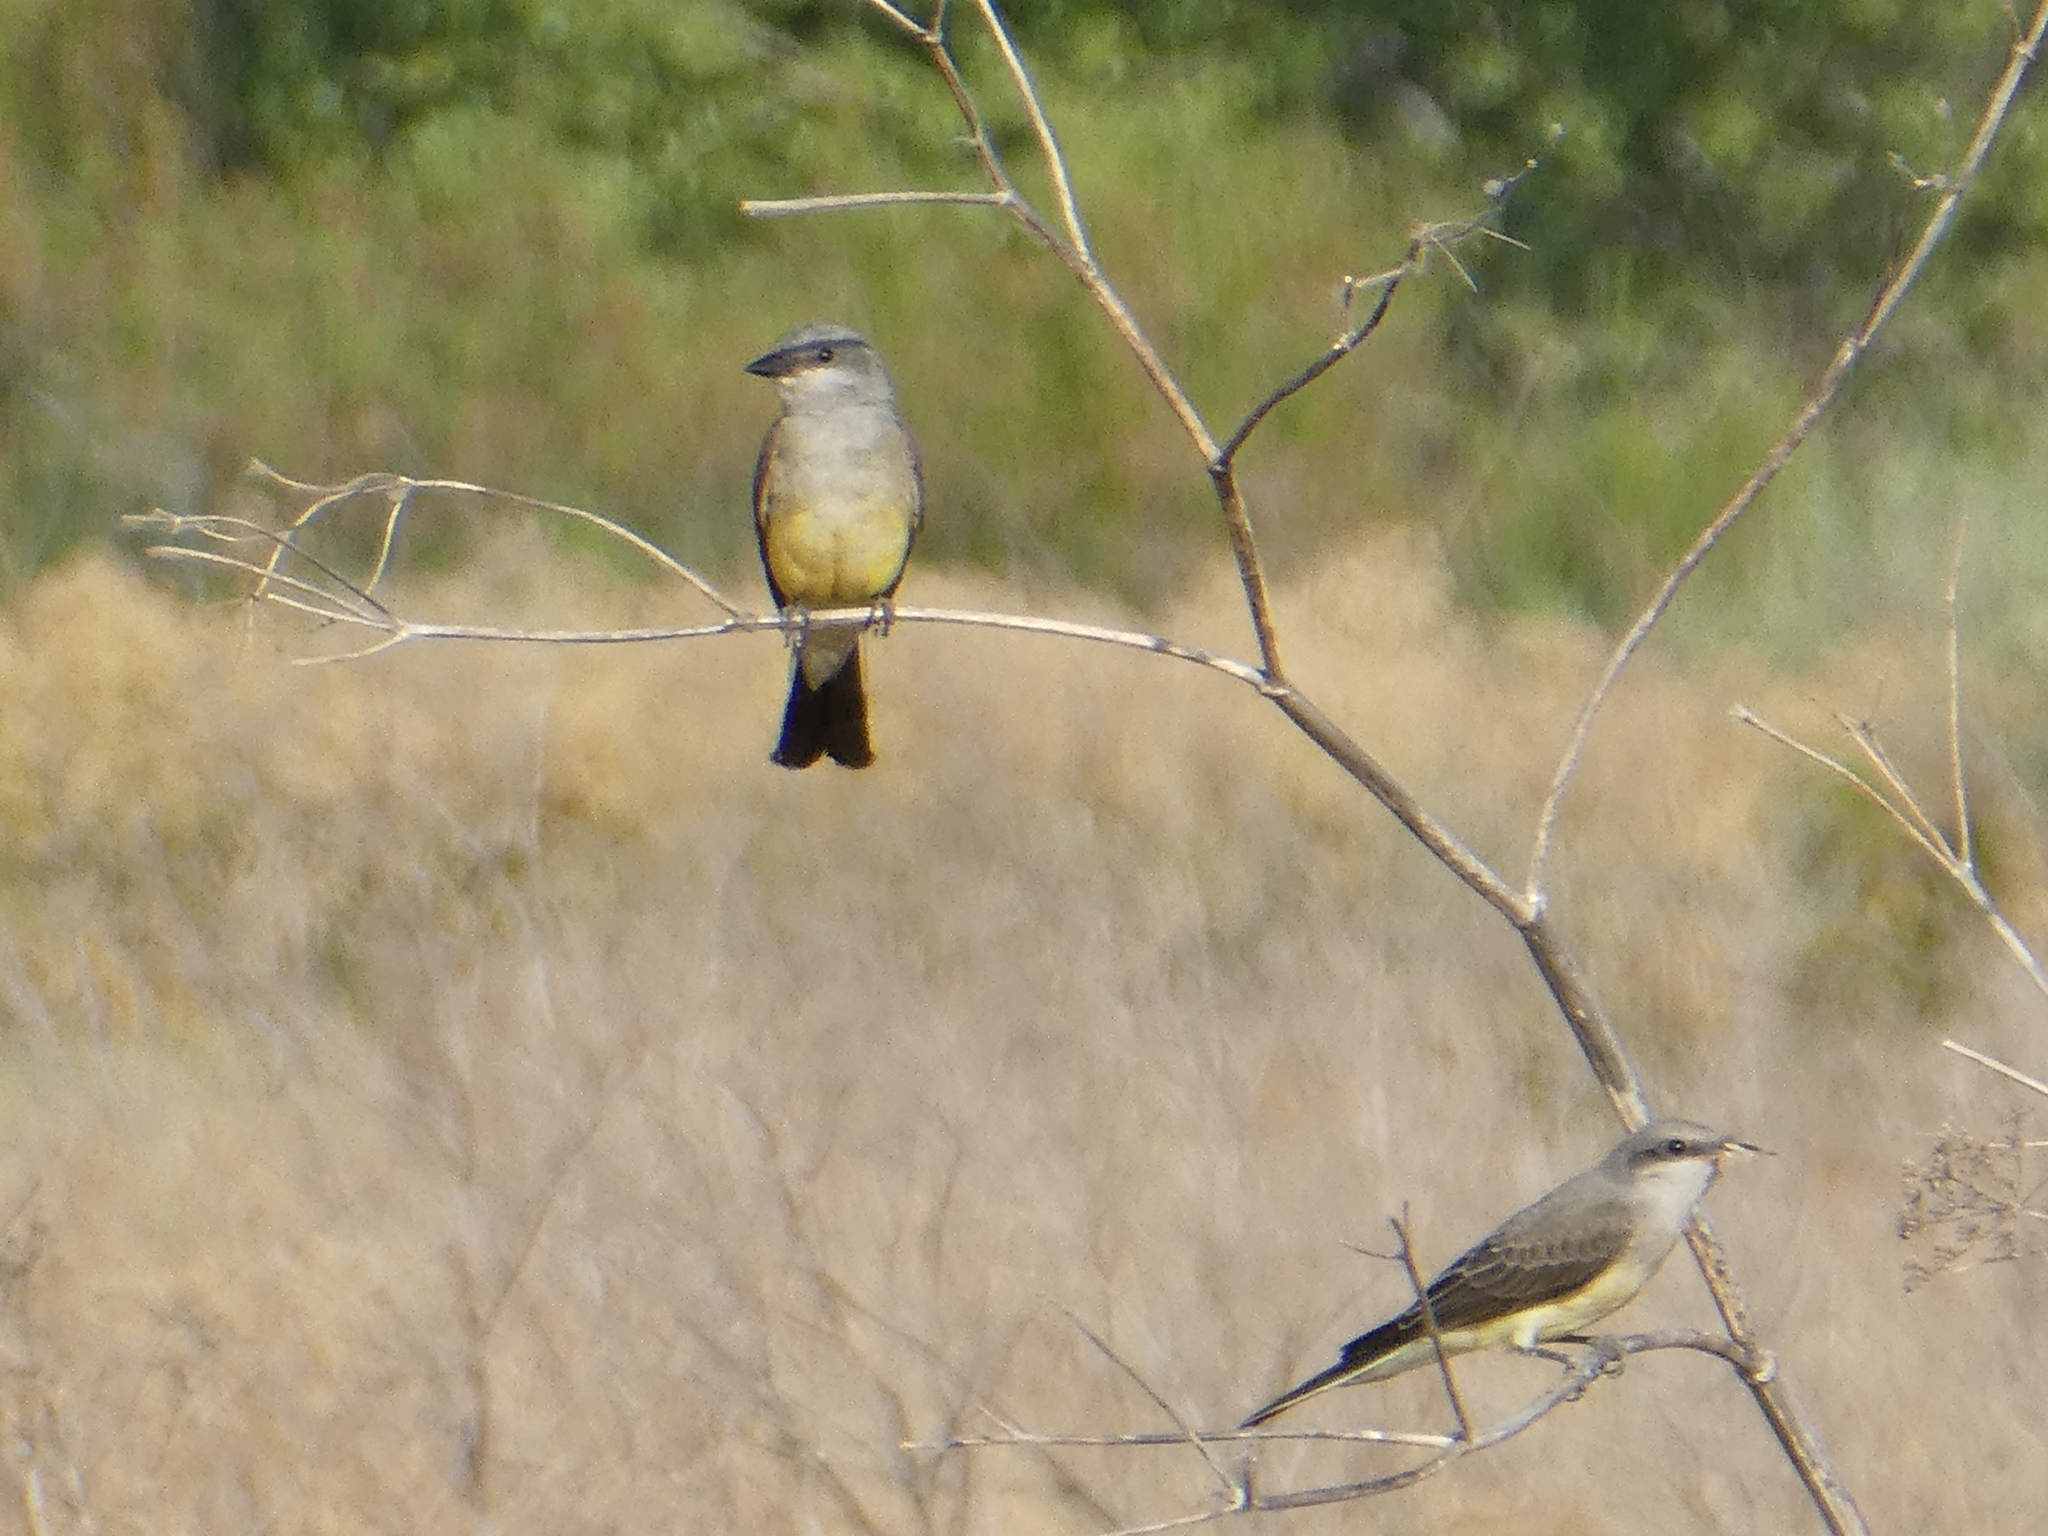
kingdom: Animalia
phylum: Chordata
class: Aves
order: Passeriformes
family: Tyrannidae
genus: Tyrannus
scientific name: Tyrannus verticalis
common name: Western kingbird
